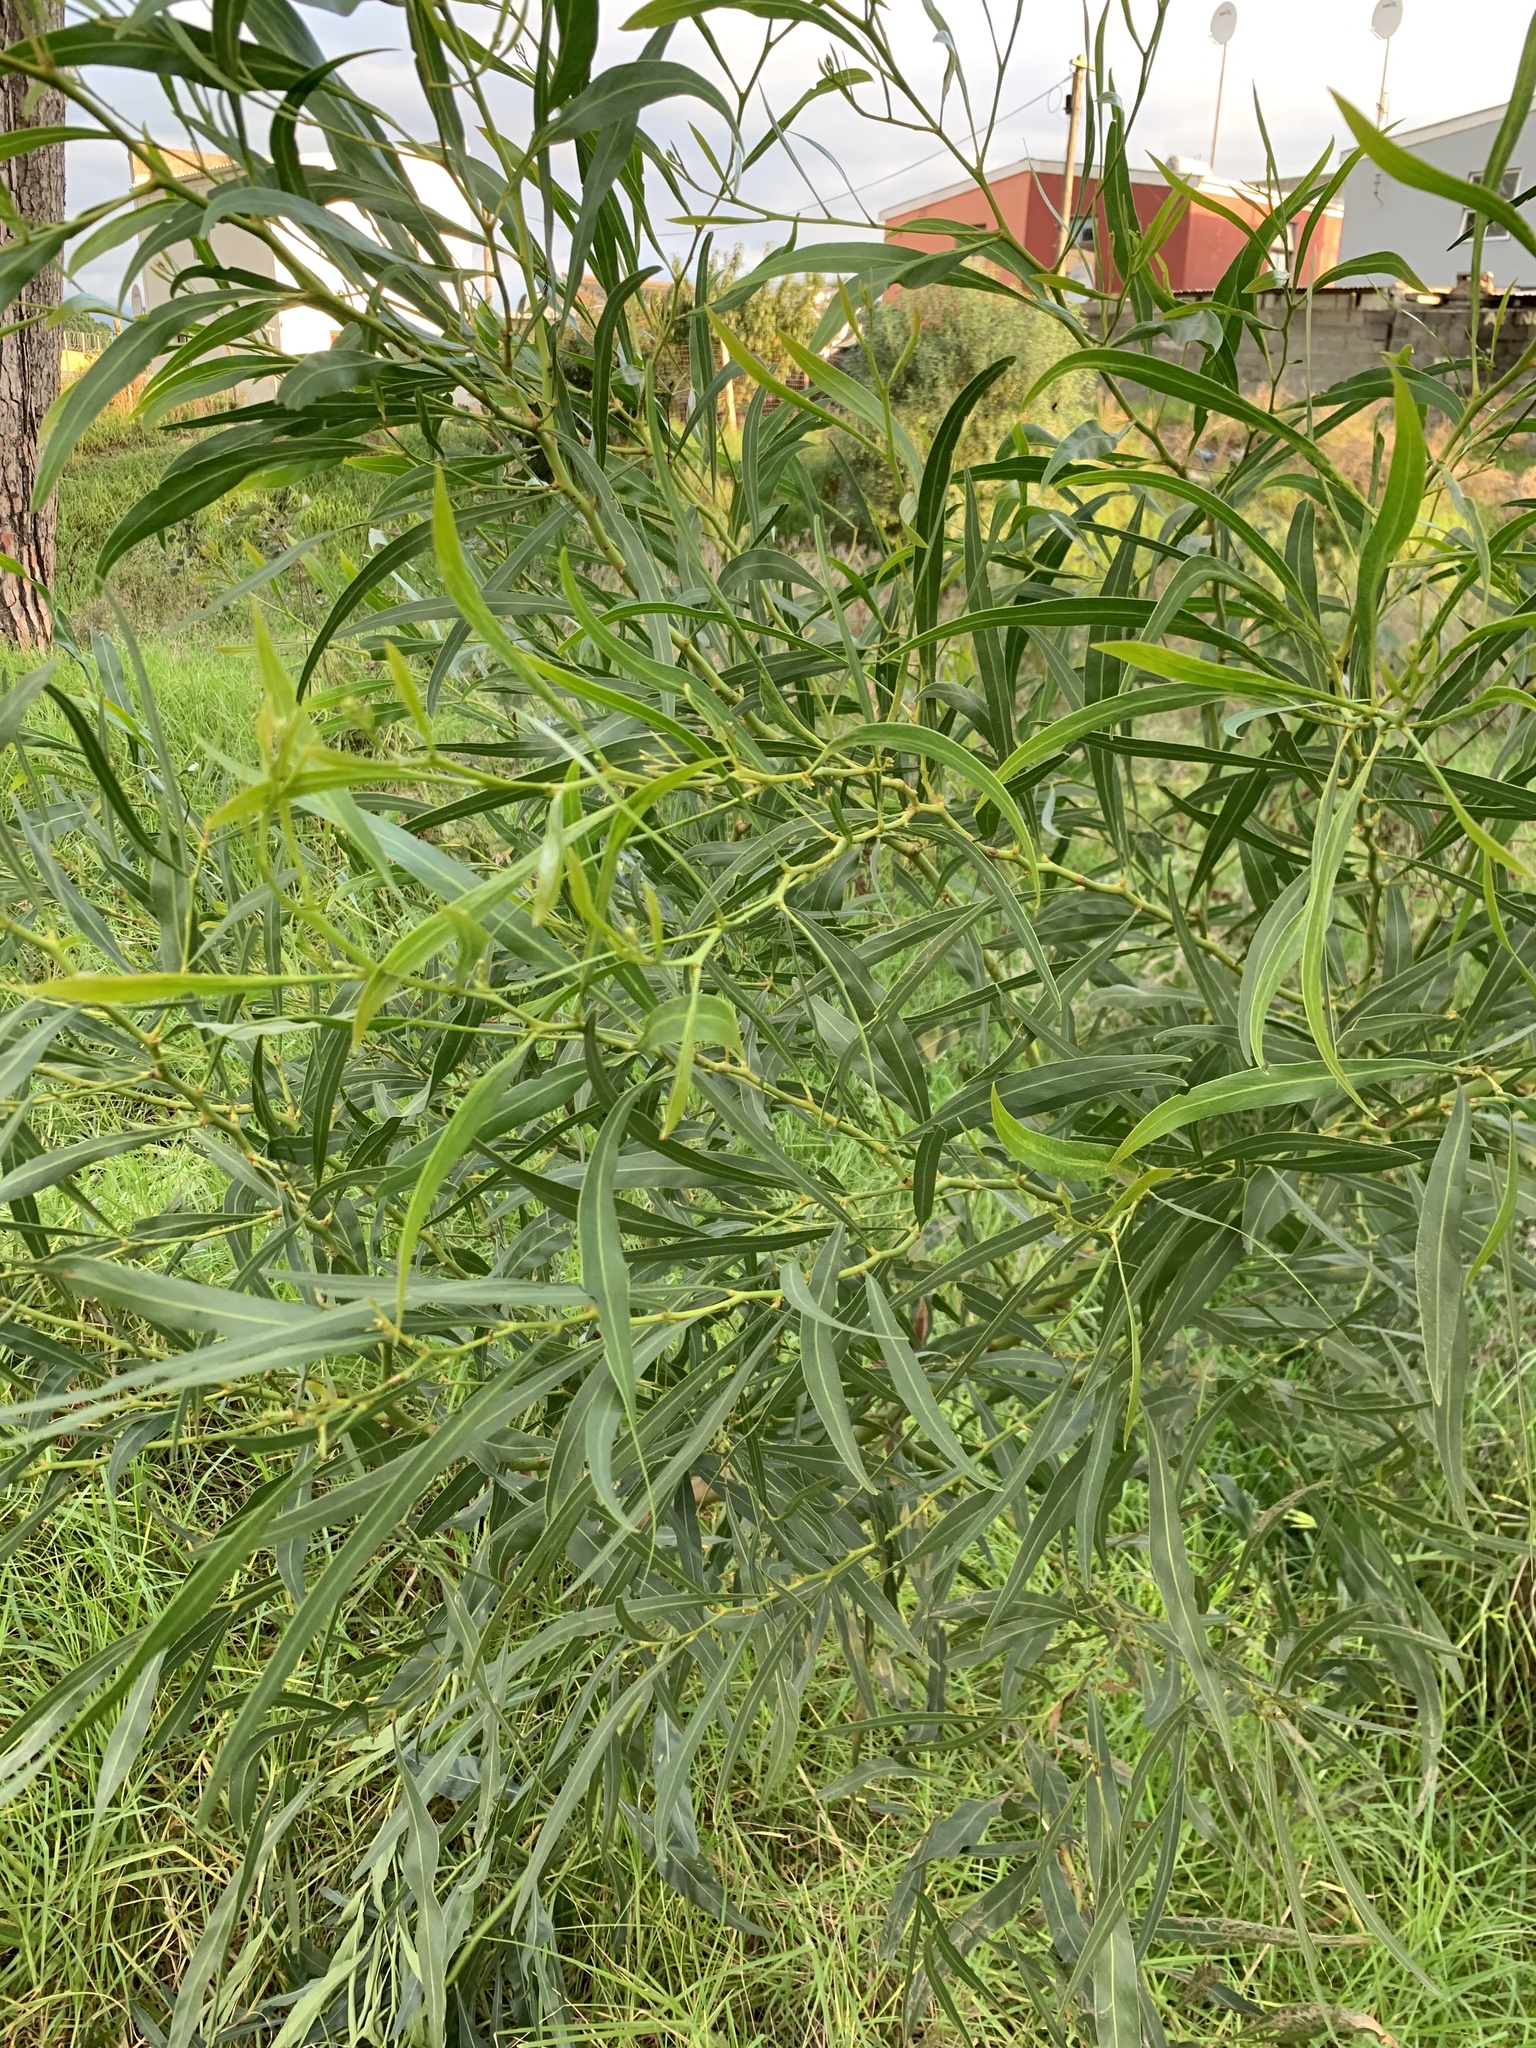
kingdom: Plantae
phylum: Tracheophyta
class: Magnoliopsida
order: Fabales
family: Fabaceae
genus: Acacia
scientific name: Acacia saligna
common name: Orange wattle
